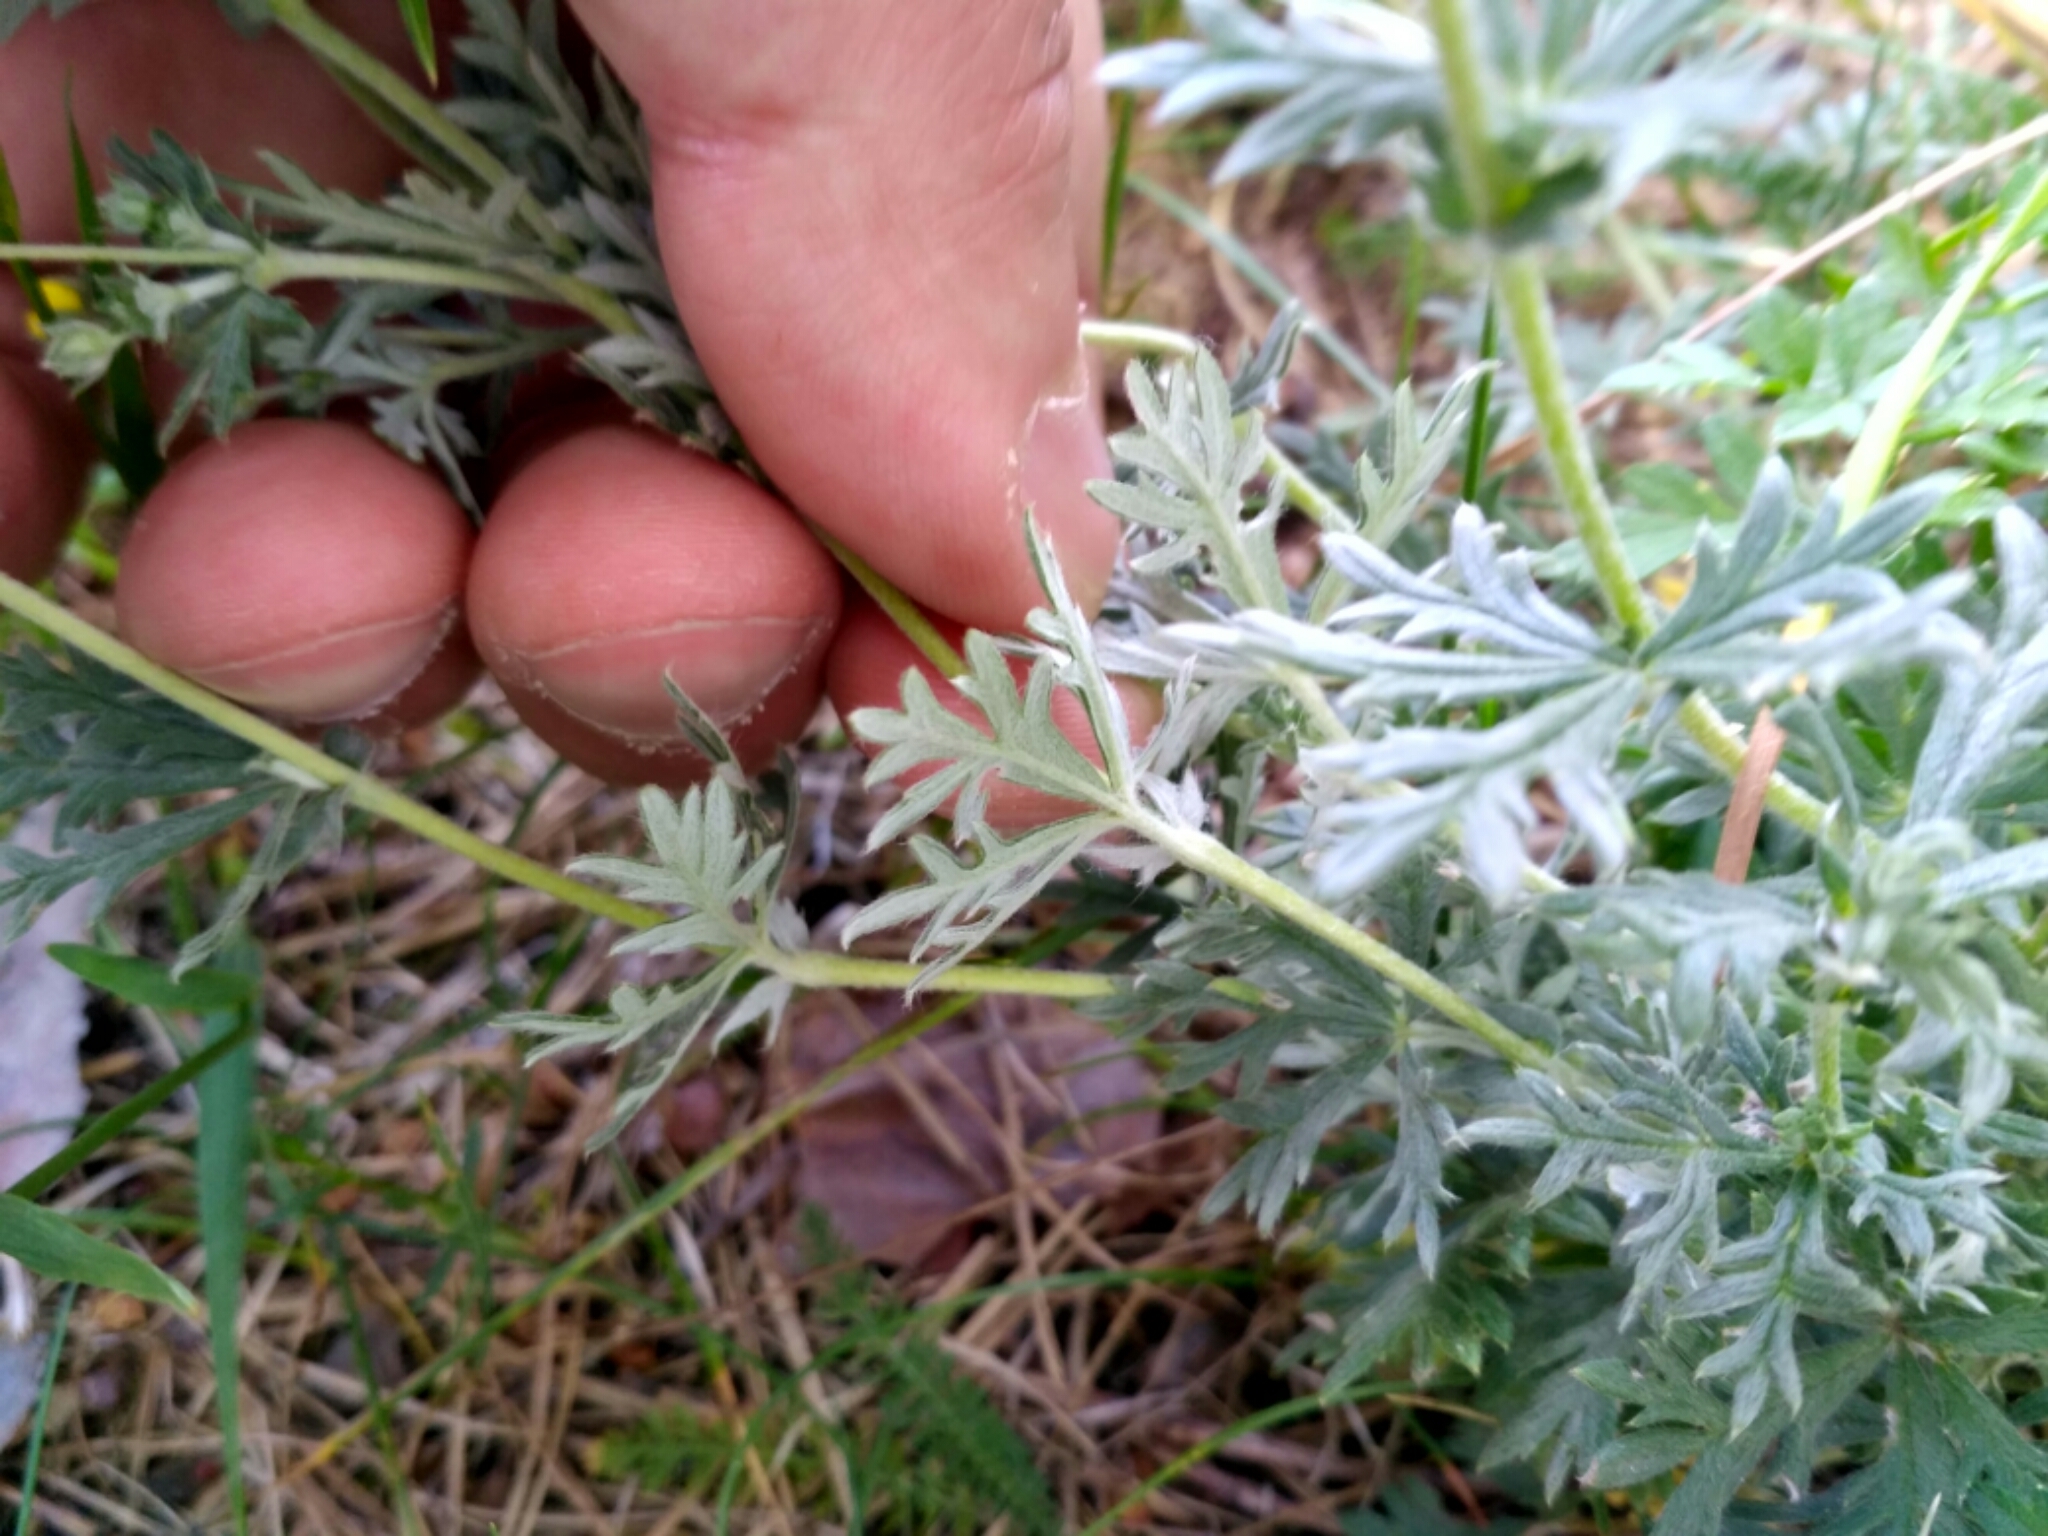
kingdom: Plantae
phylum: Tracheophyta
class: Magnoliopsida
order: Rosales
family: Rosaceae
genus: Potentilla
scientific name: Potentilla argentea
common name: Hoary cinquefoil
